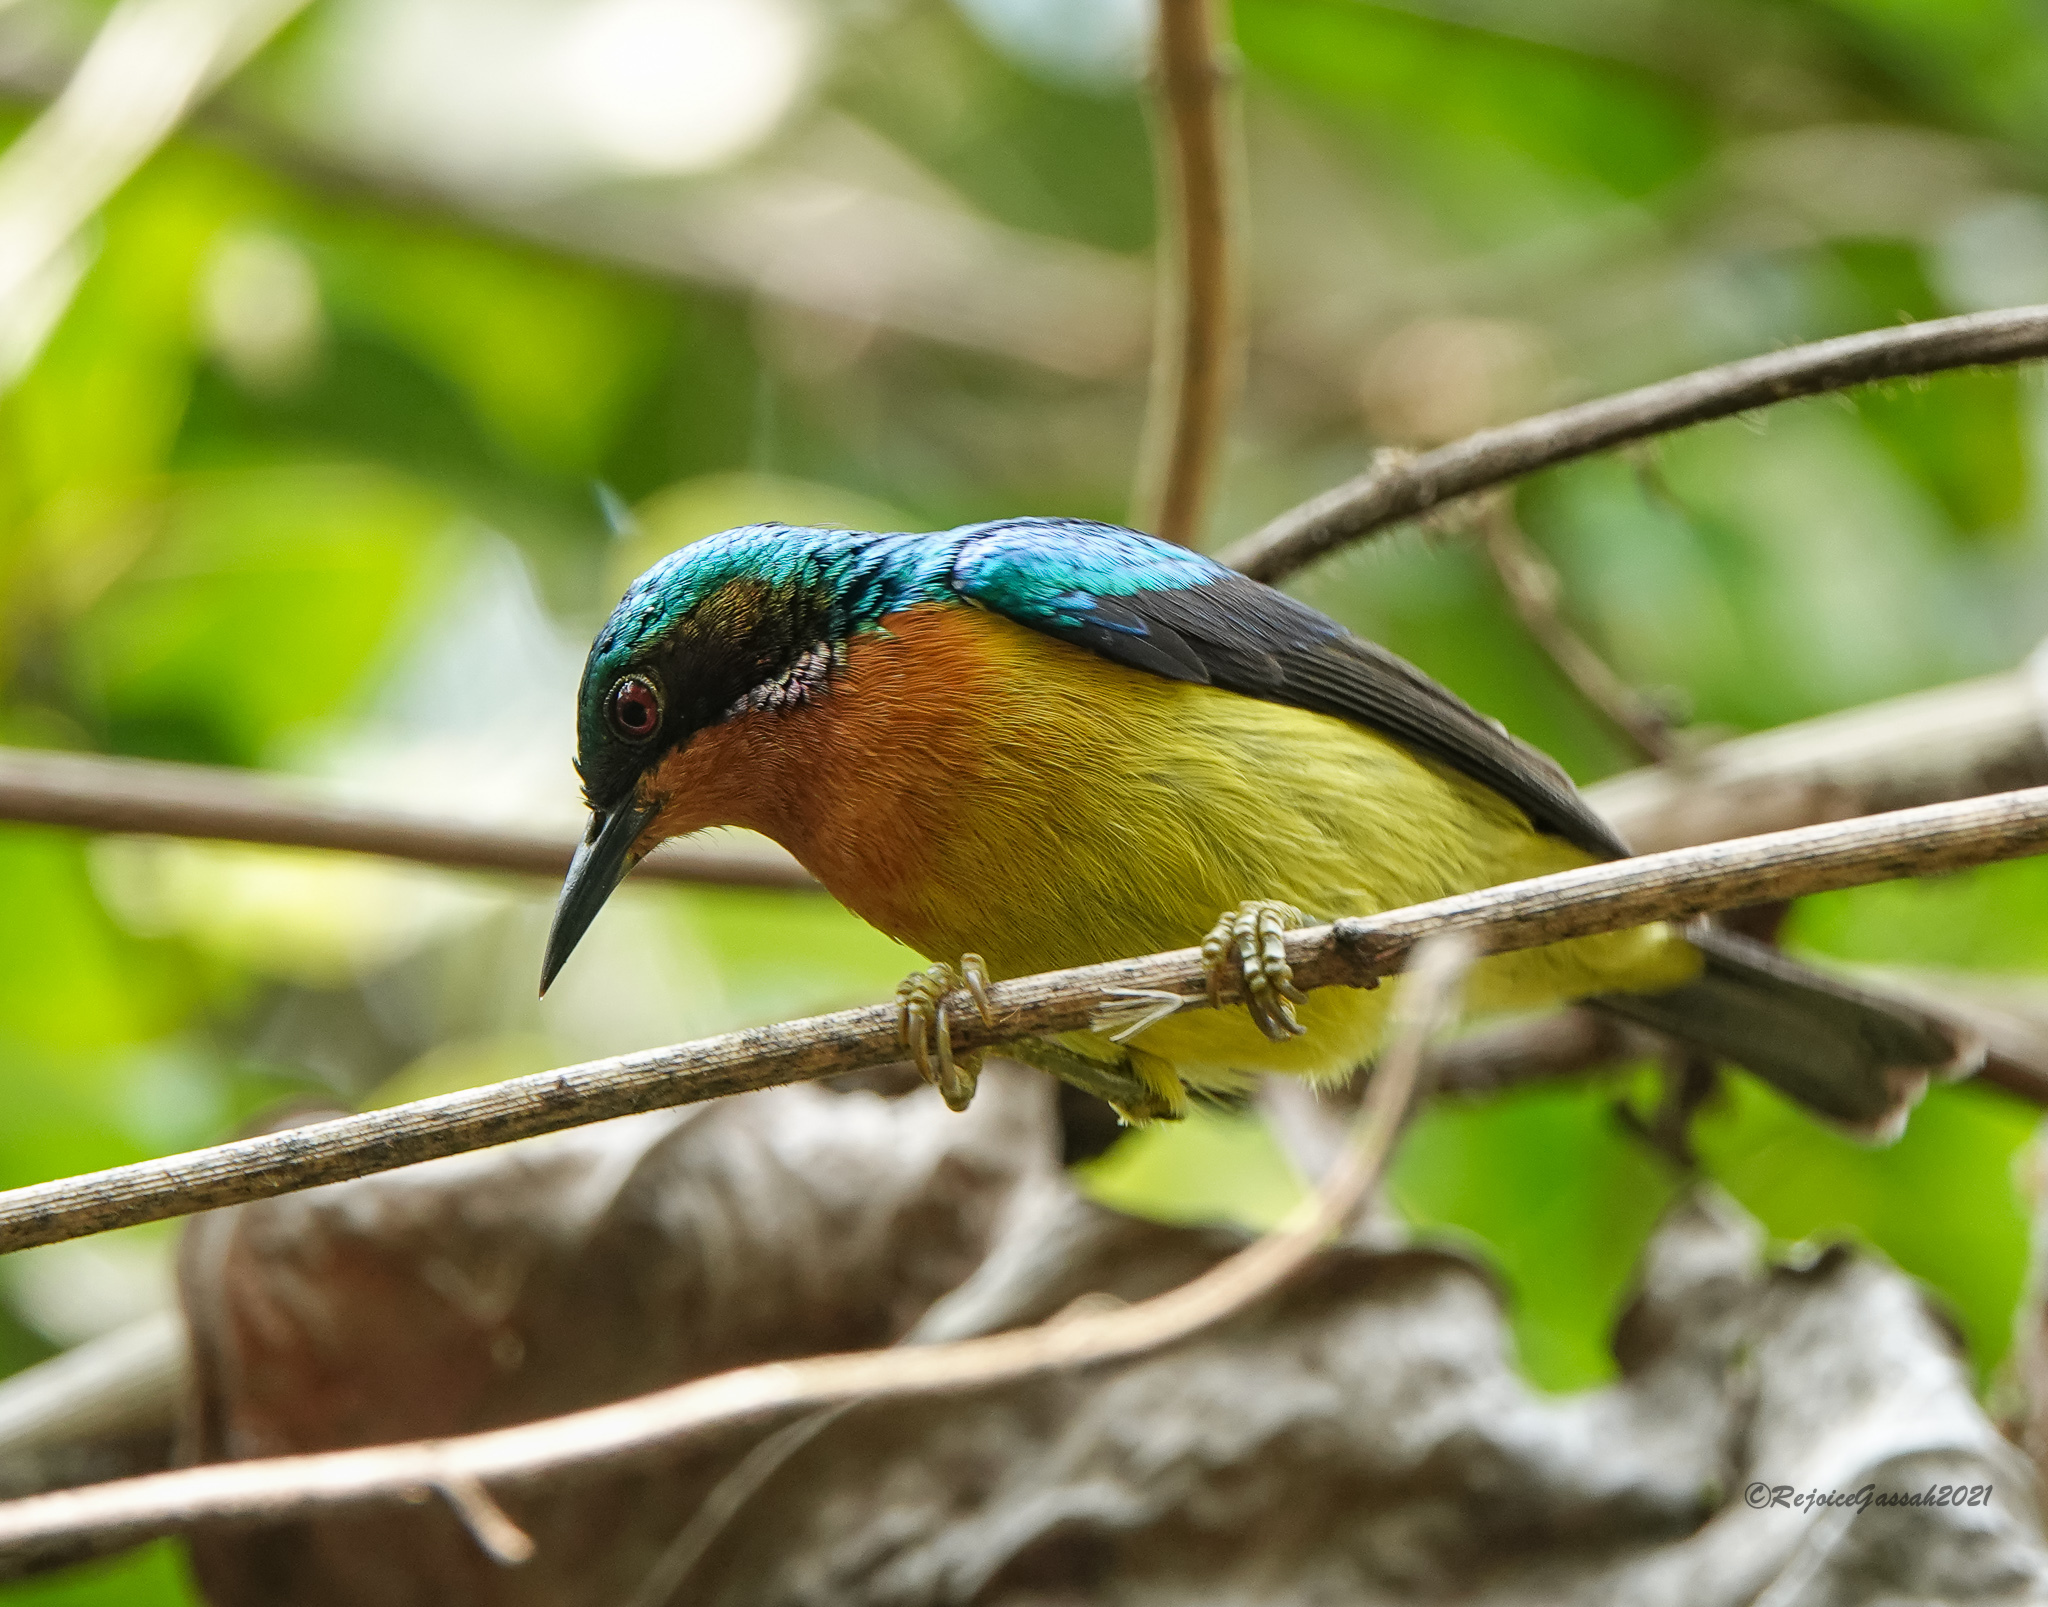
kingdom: Animalia
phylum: Chordata
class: Aves
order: Passeriformes
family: Nectariniidae
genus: Chalcoparia
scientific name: Chalcoparia singalensis
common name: Ruby-cheeked sunbird
